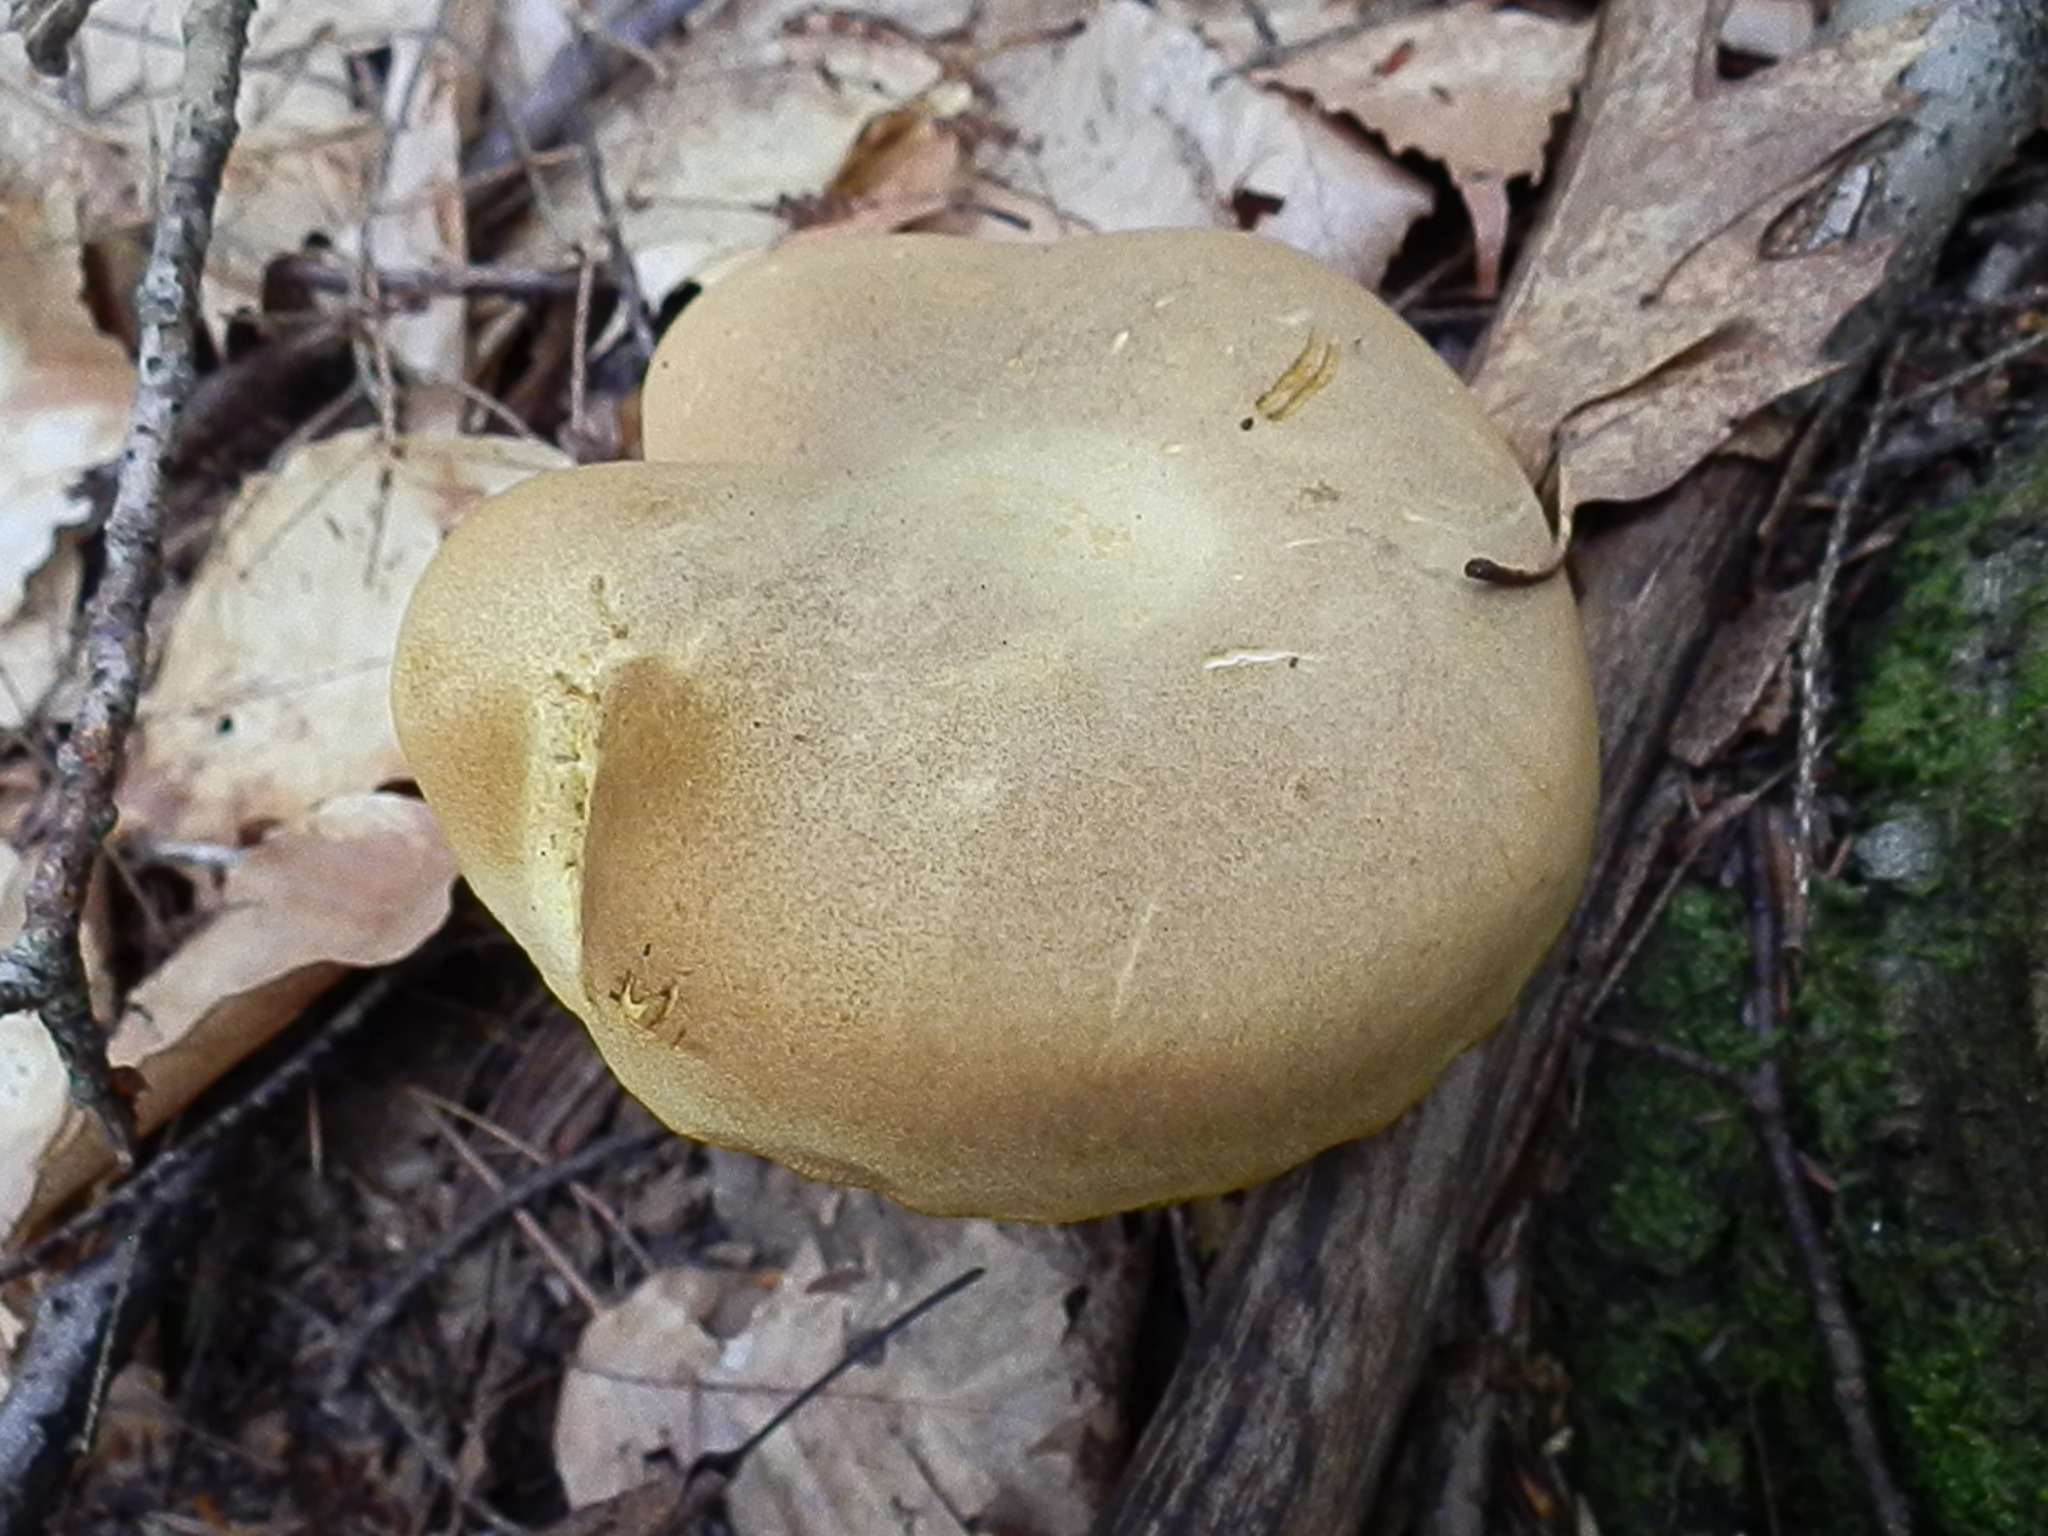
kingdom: Fungi
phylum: Basidiomycota
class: Agaricomycetes
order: Boletales
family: Boletaceae
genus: Retiboletus
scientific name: Retiboletus ornatipes
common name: Ornate-stalked bolete
